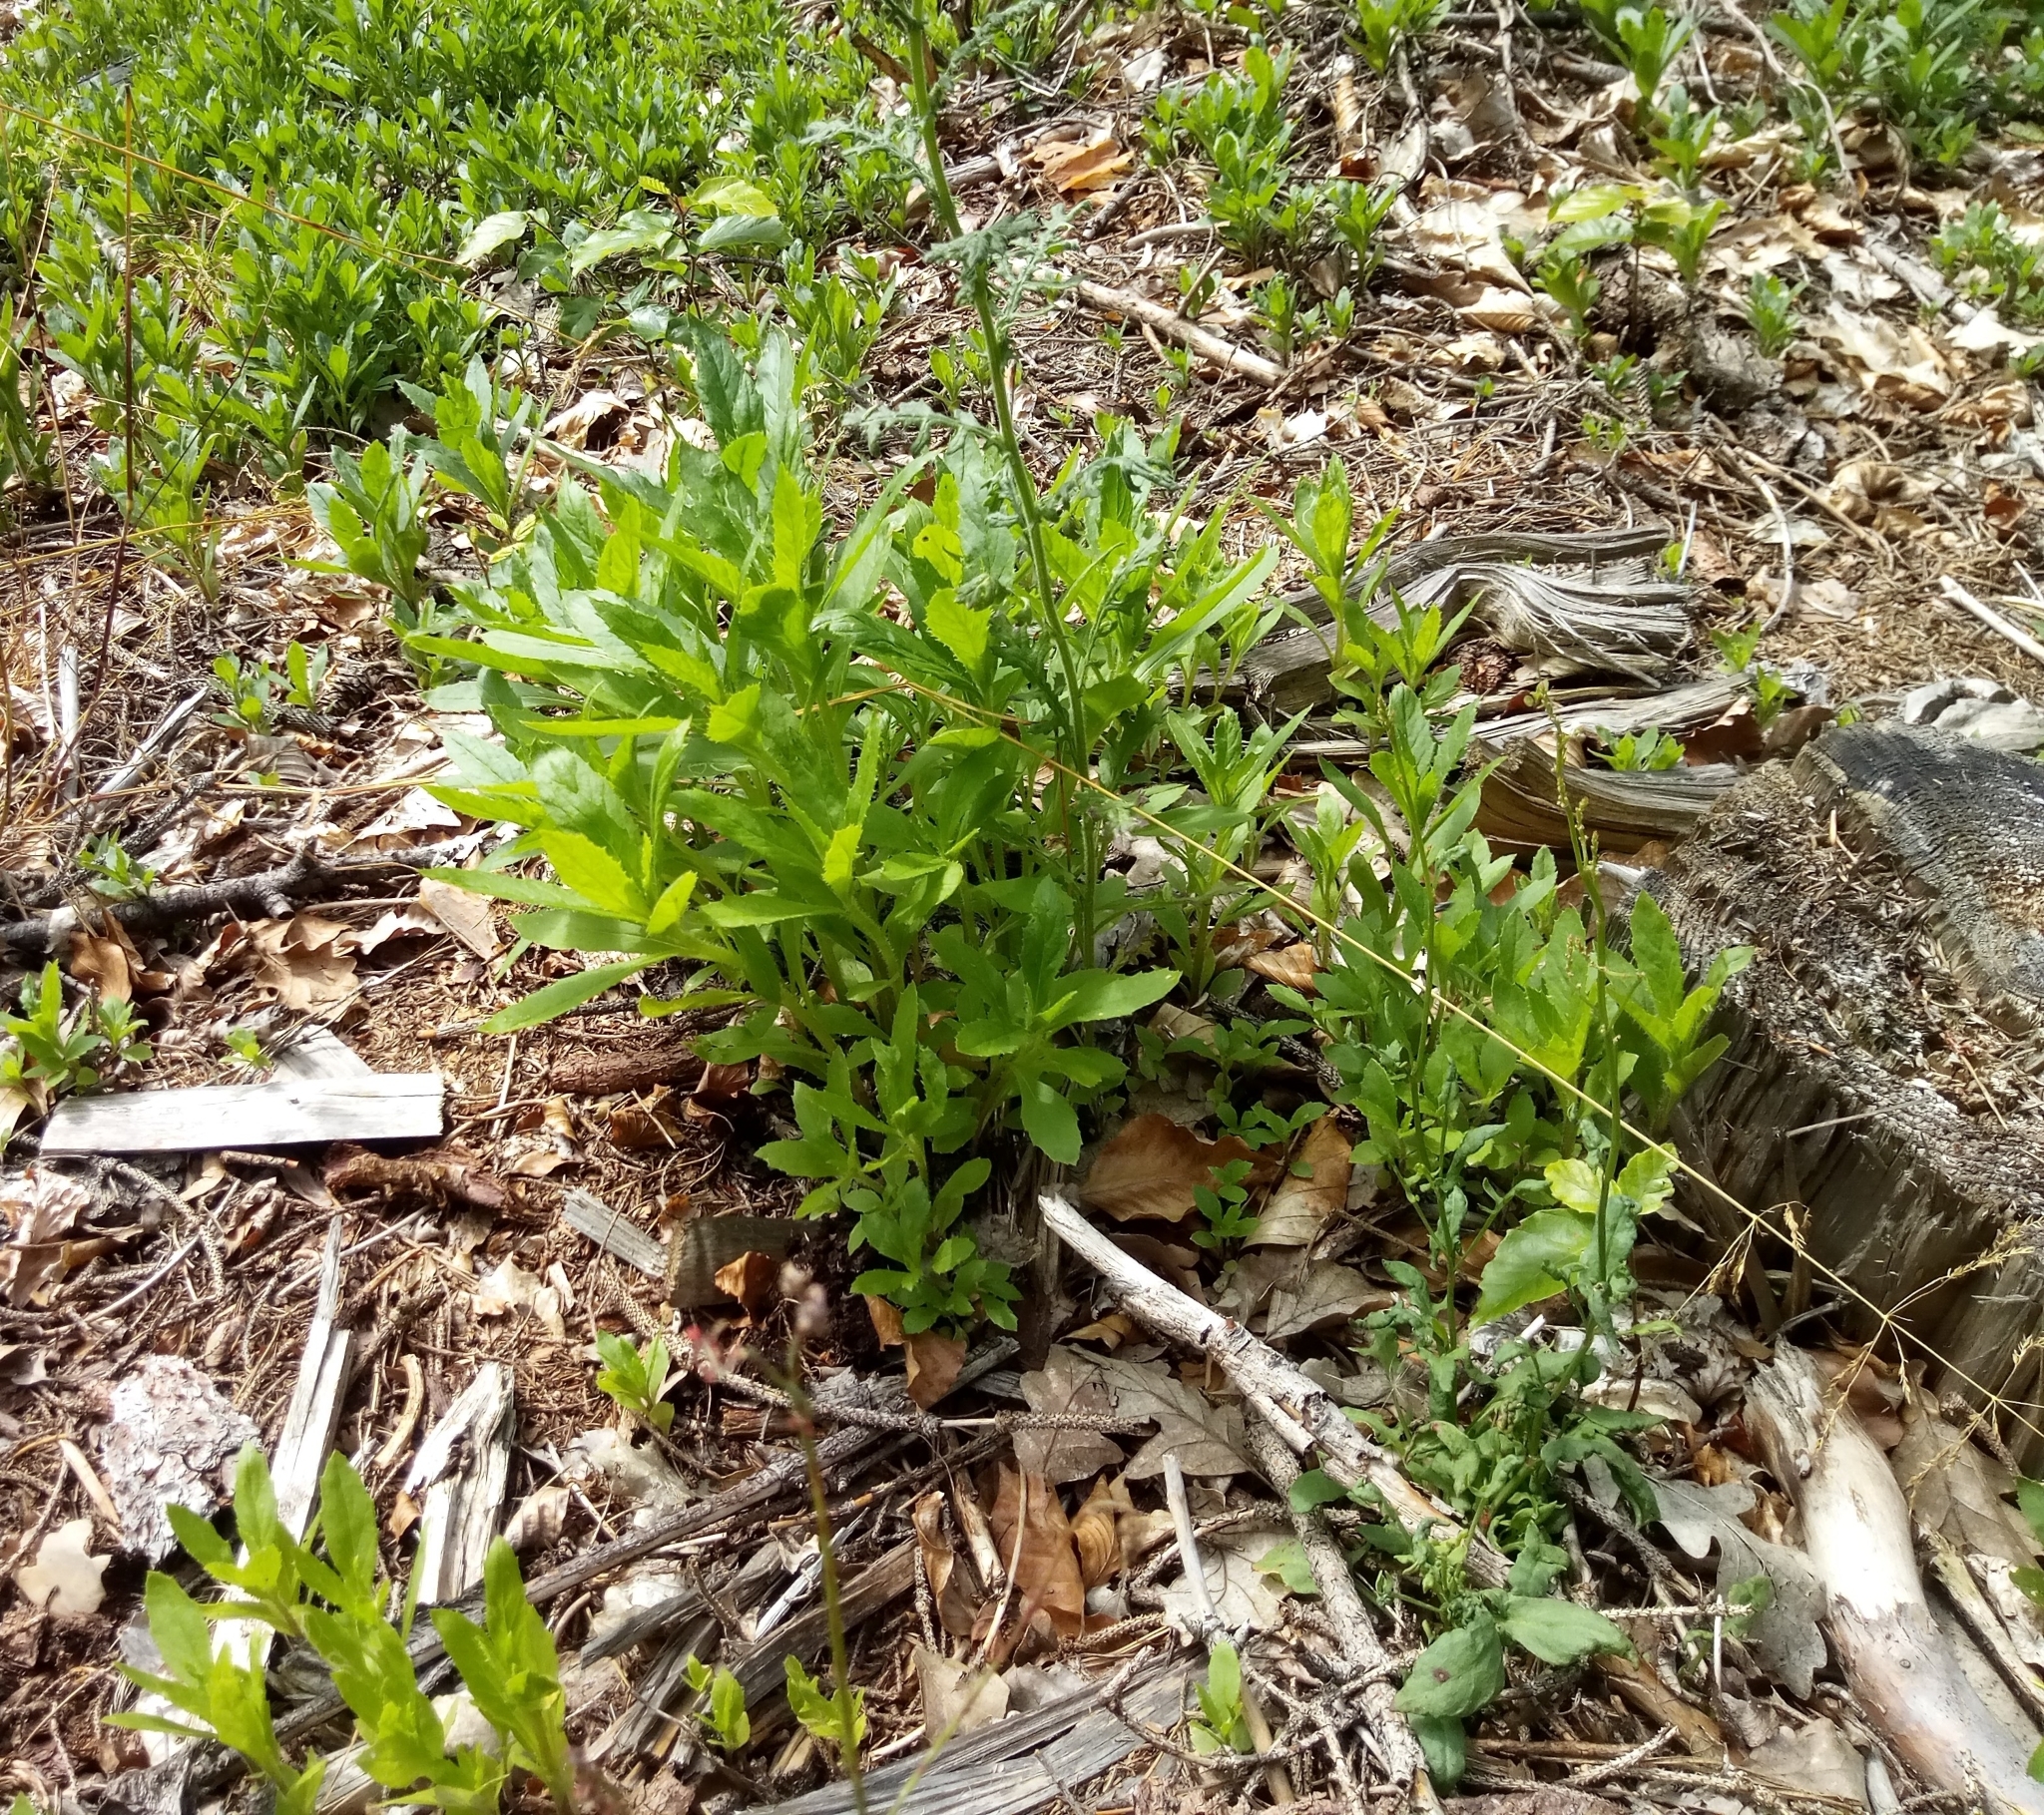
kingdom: Plantae
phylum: Tracheophyta
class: Magnoliopsida
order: Asterales
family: Asteraceae
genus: Erechtites
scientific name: Erechtites hieraciifolius
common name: American burnweed
